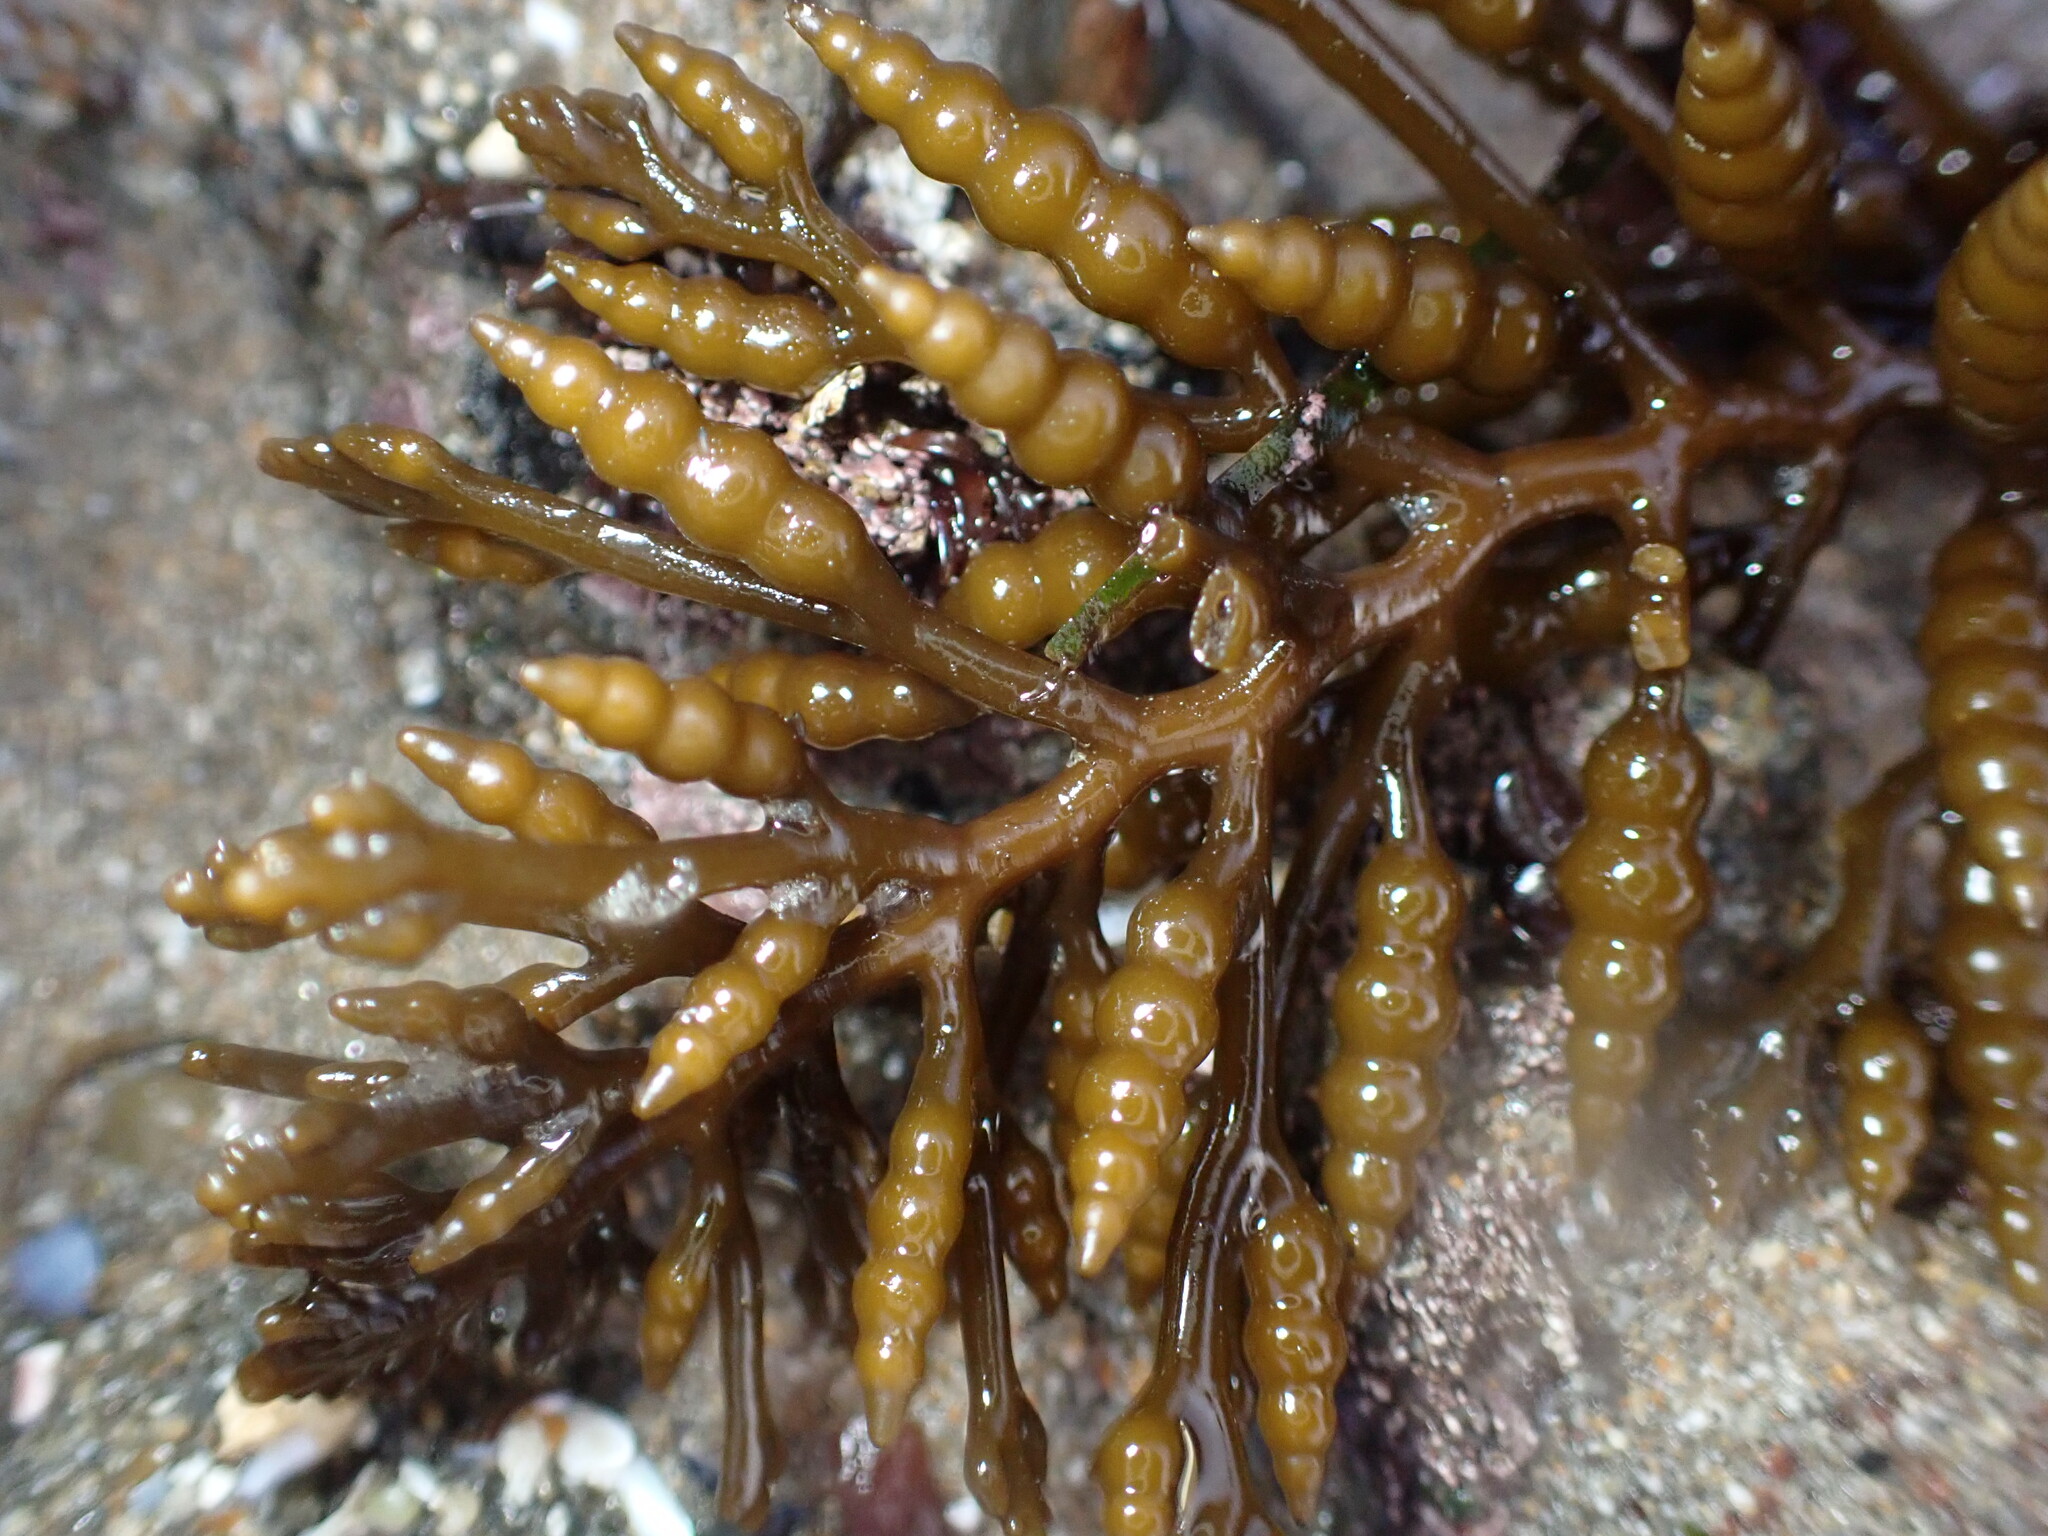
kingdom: Chromista
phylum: Ochrophyta
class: Phaeophyceae
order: Fucales
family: Sargassaceae
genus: Stephanocystis
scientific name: Stephanocystis
